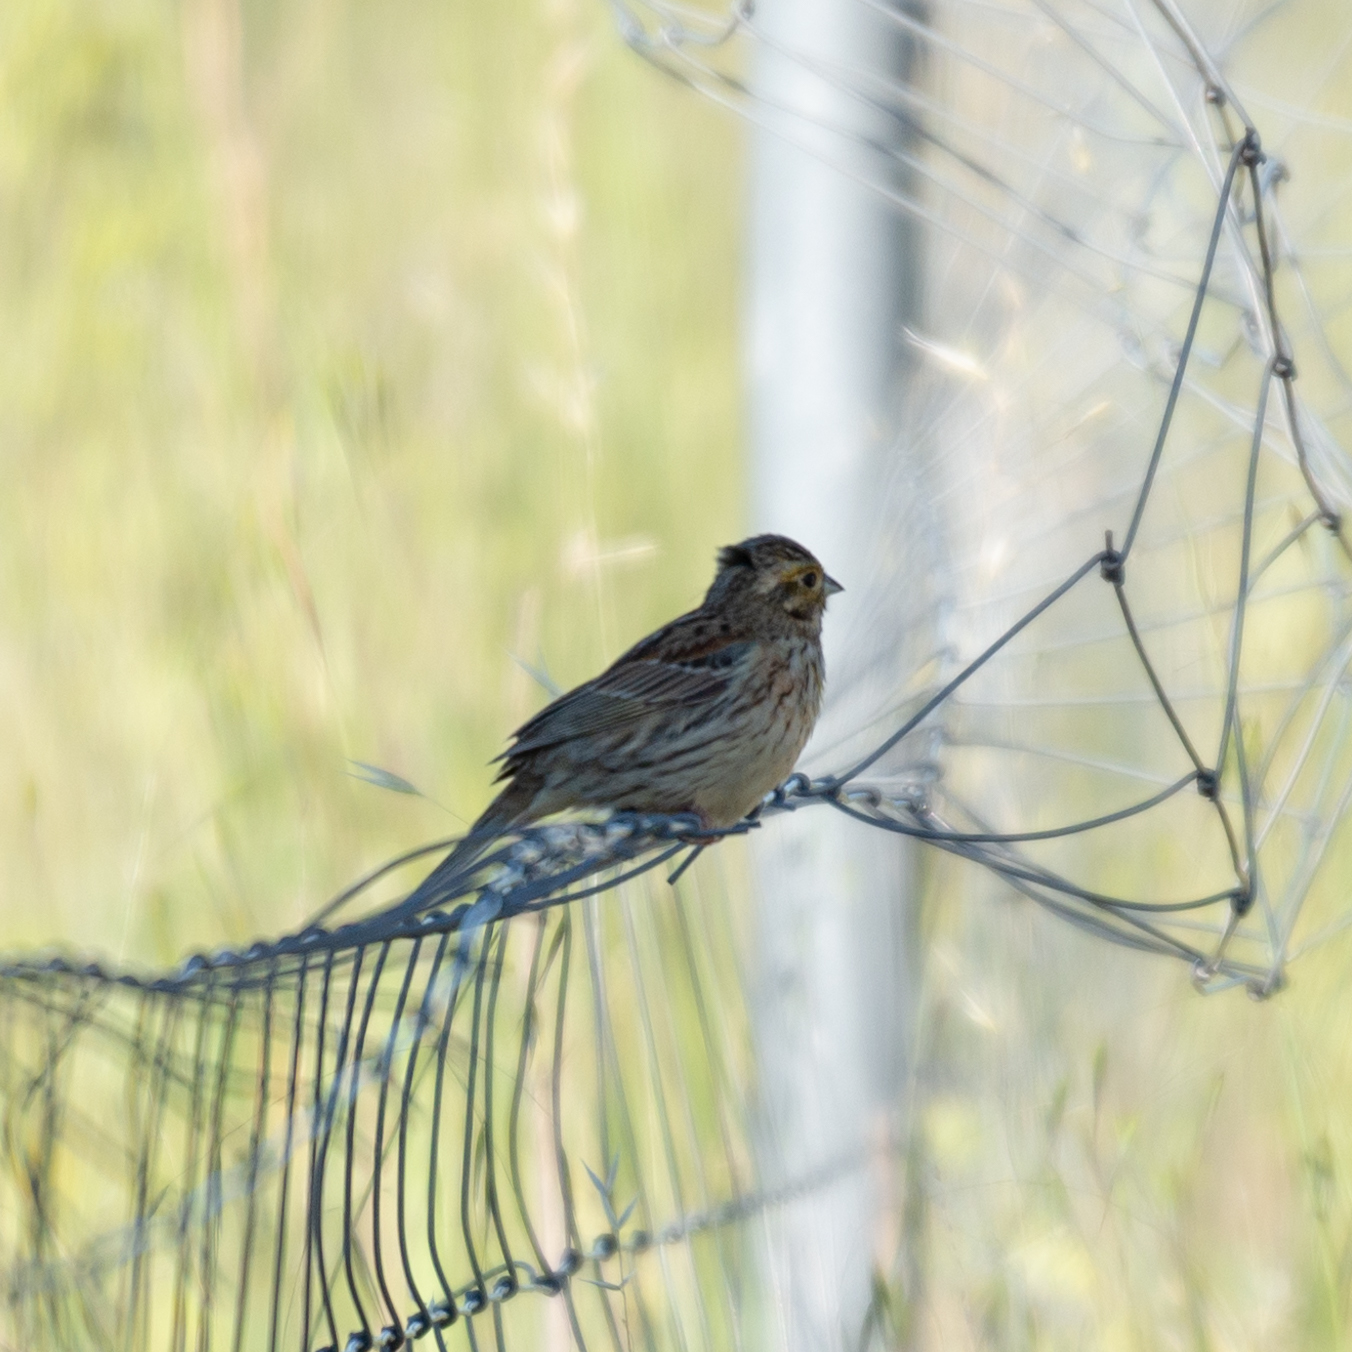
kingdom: Animalia
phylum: Chordata
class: Aves
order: Passeriformes
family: Emberizidae
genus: Emberiza
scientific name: Emberiza cirlus
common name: Cirl bunting
